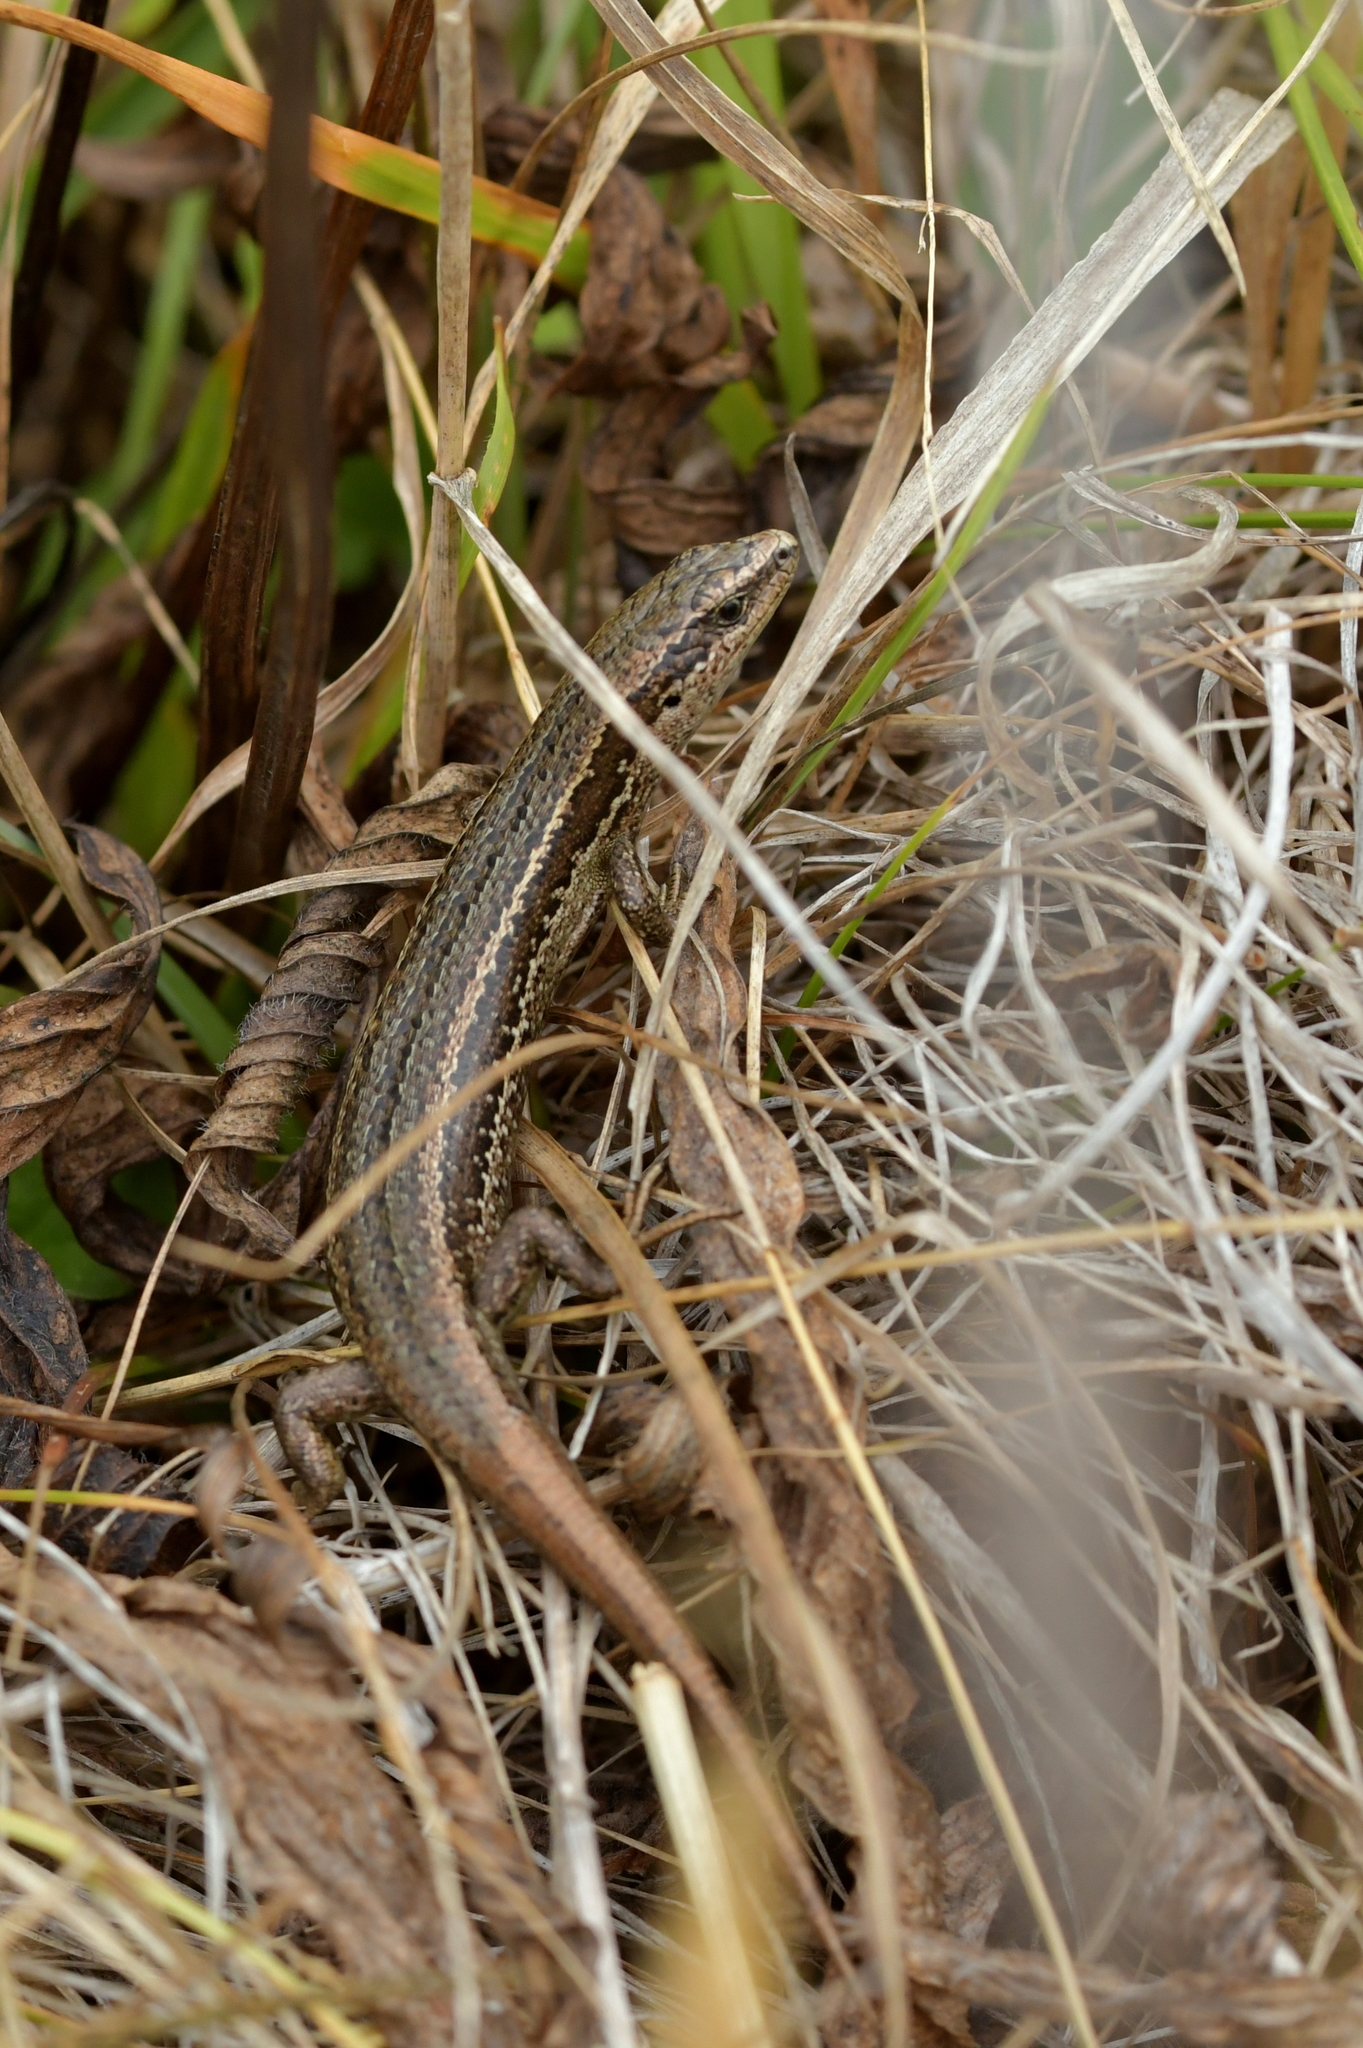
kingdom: Animalia
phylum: Chordata
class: Squamata
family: Scincidae
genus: Oligosoma
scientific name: Oligosoma polychroma
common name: Common new zealand skink
